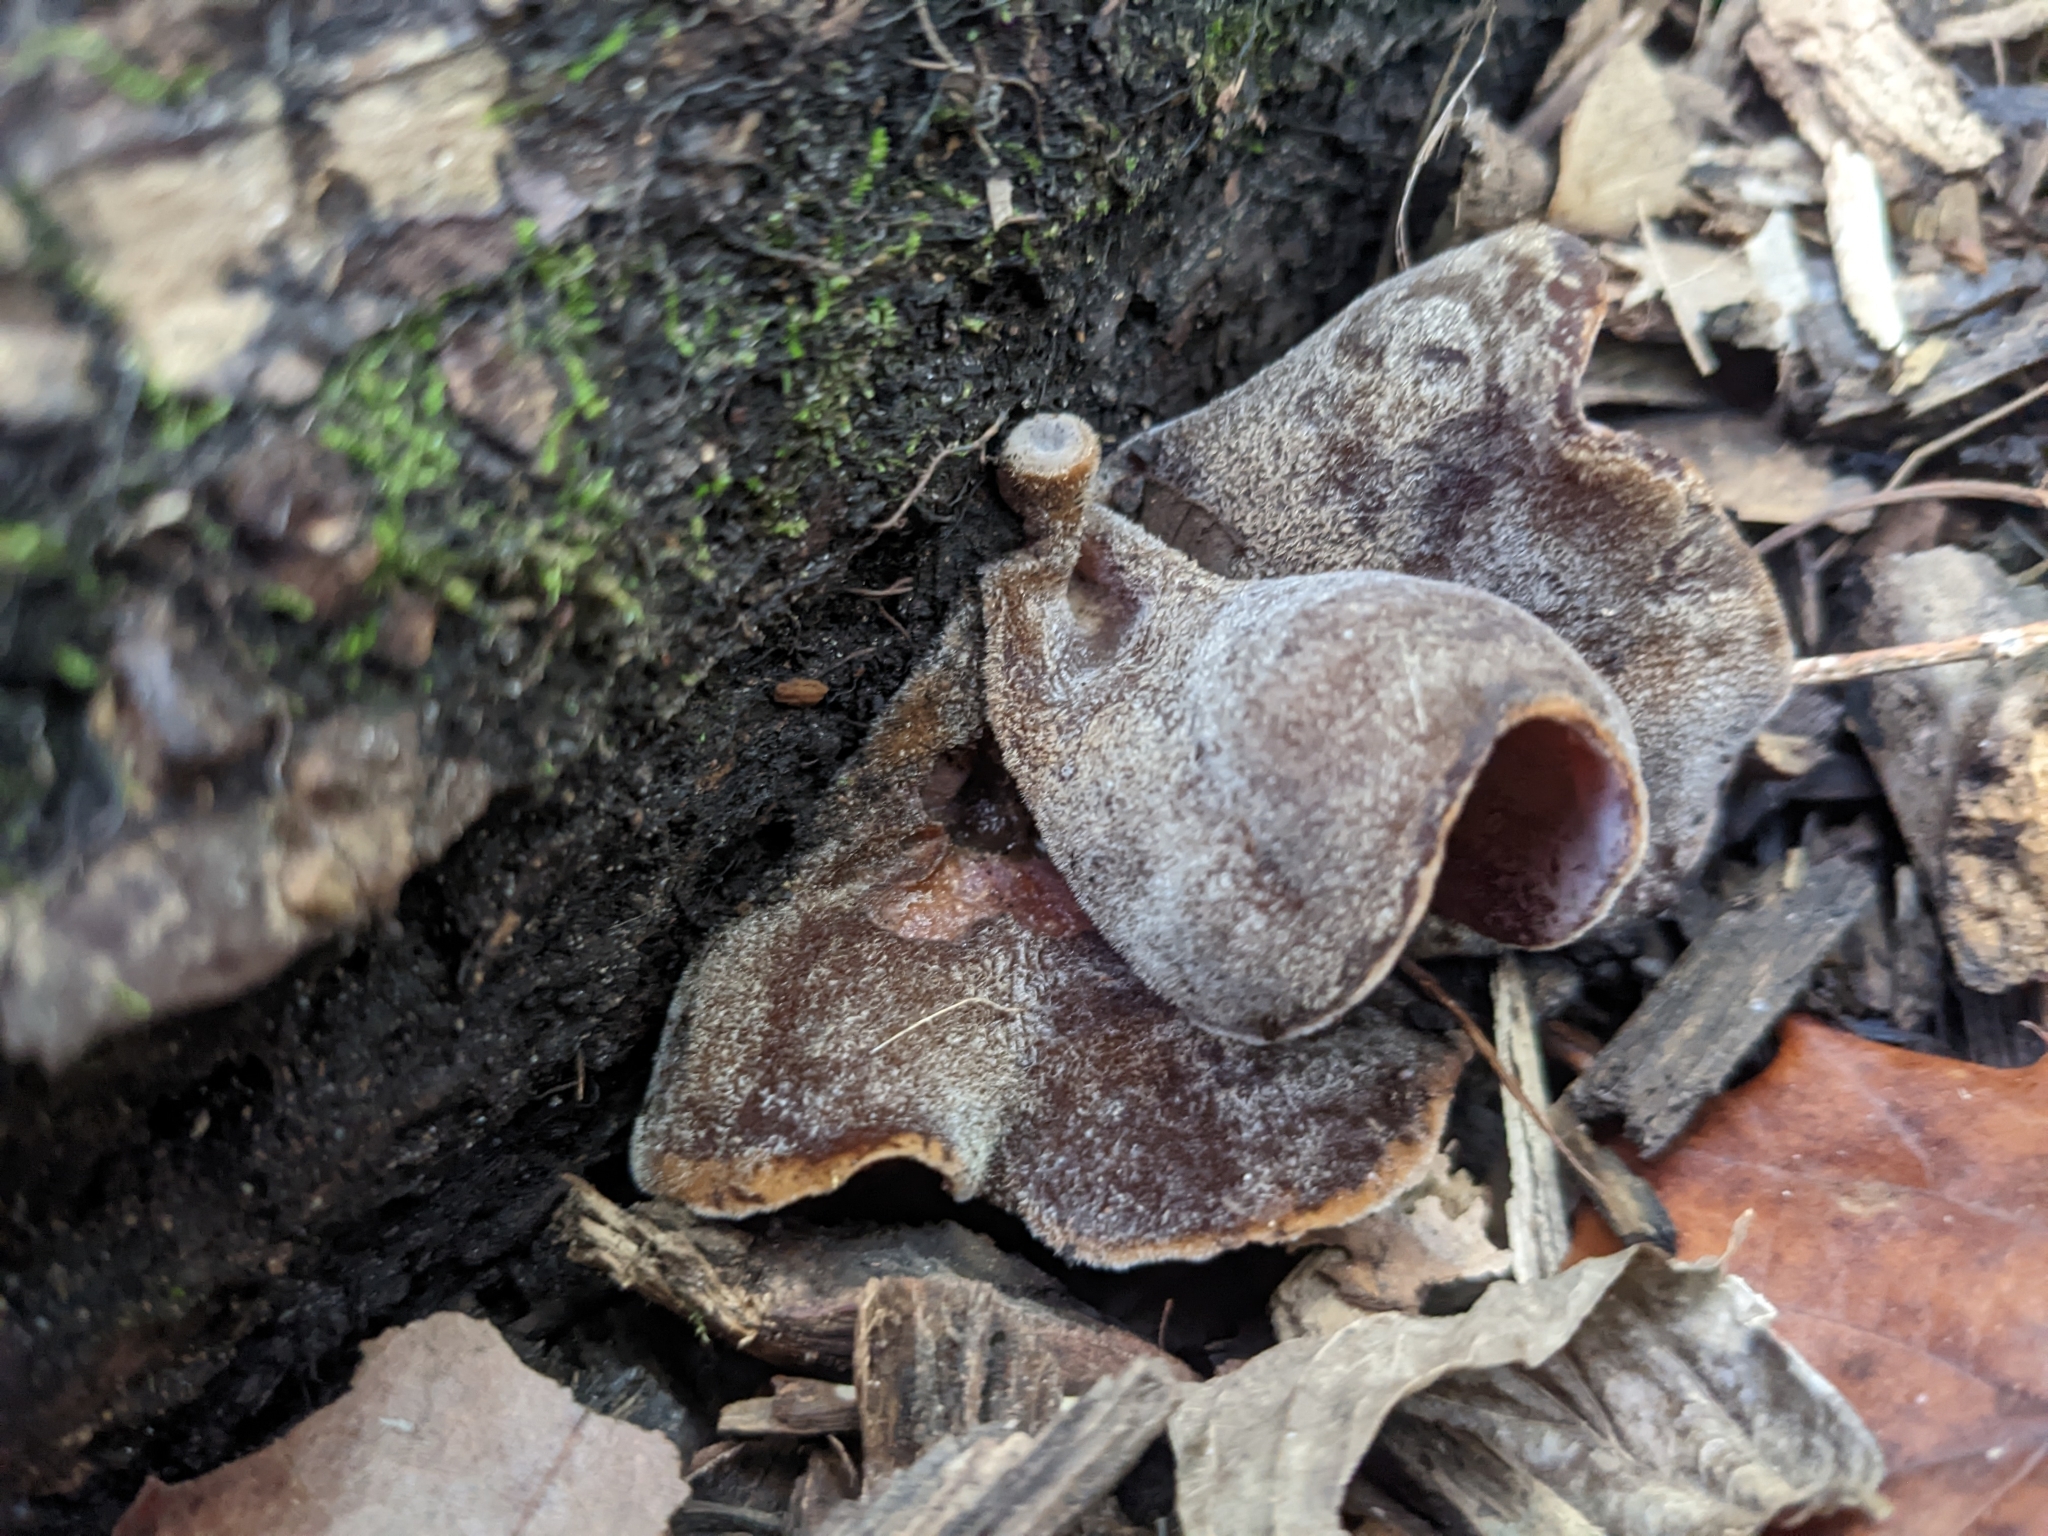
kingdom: Fungi
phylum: Basidiomycota
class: Agaricomycetes
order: Auriculariales
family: Auriculariaceae
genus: Auricularia
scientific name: Auricularia nigricans
